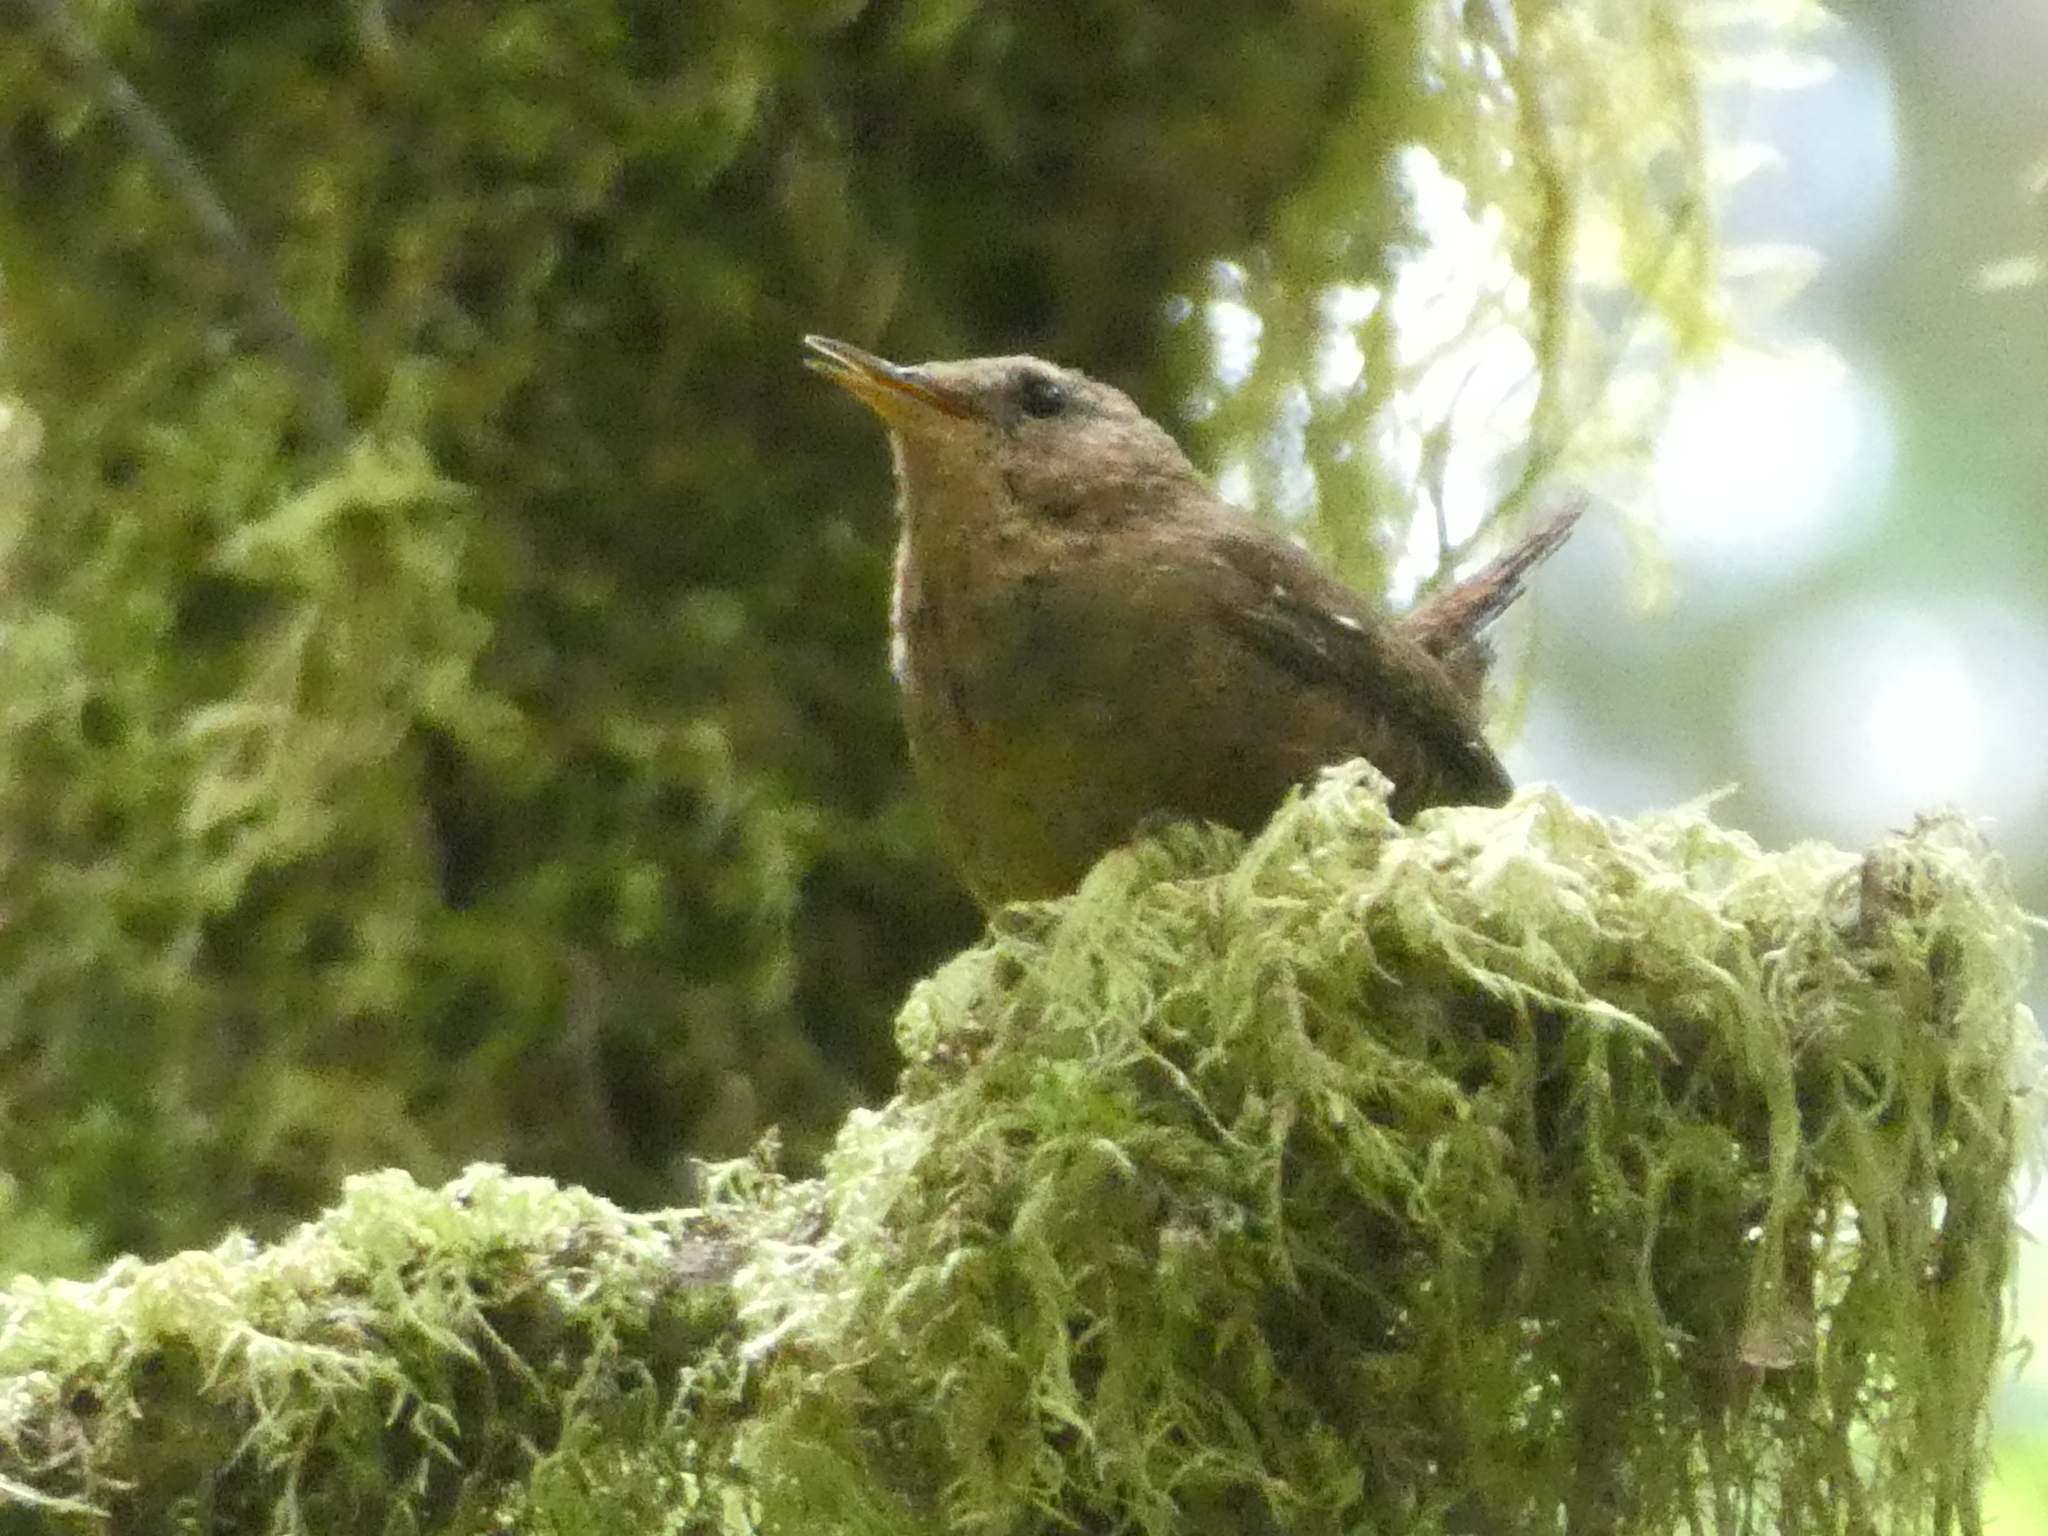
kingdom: Animalia
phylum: Chordata
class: Aves
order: Passeriformes
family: Troglodytidae
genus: Troglodytes
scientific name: Troglodytes pacificus
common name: Pacific wren
